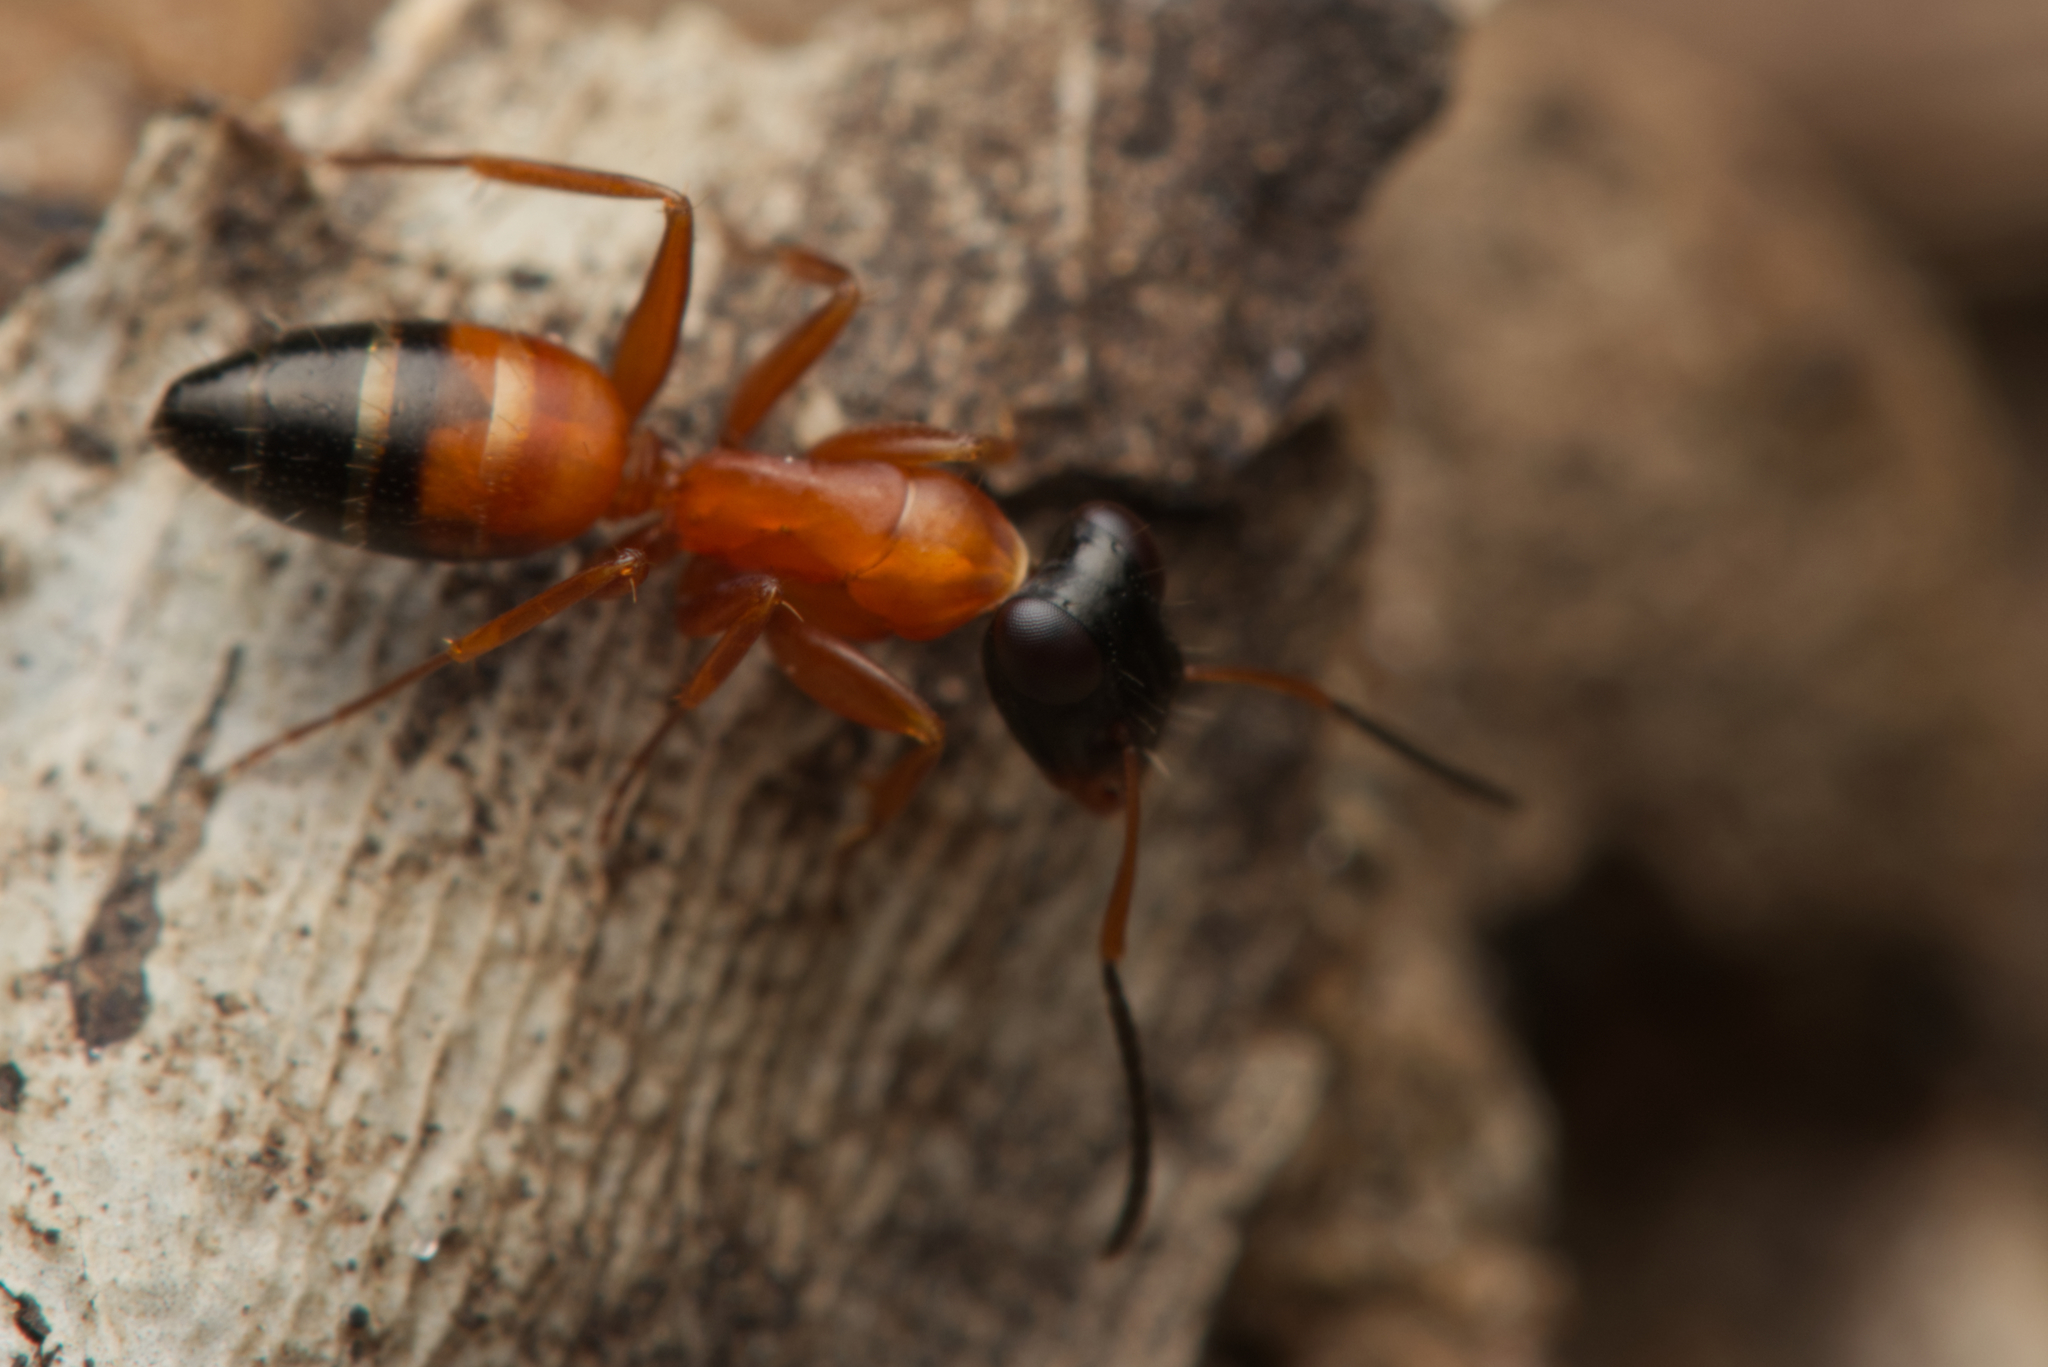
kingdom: Animalia
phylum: Arthropoda
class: Insecta
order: Hymenoptera
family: Formicidae
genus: Opisthopsis
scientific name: Opisthopsis rufithorax
